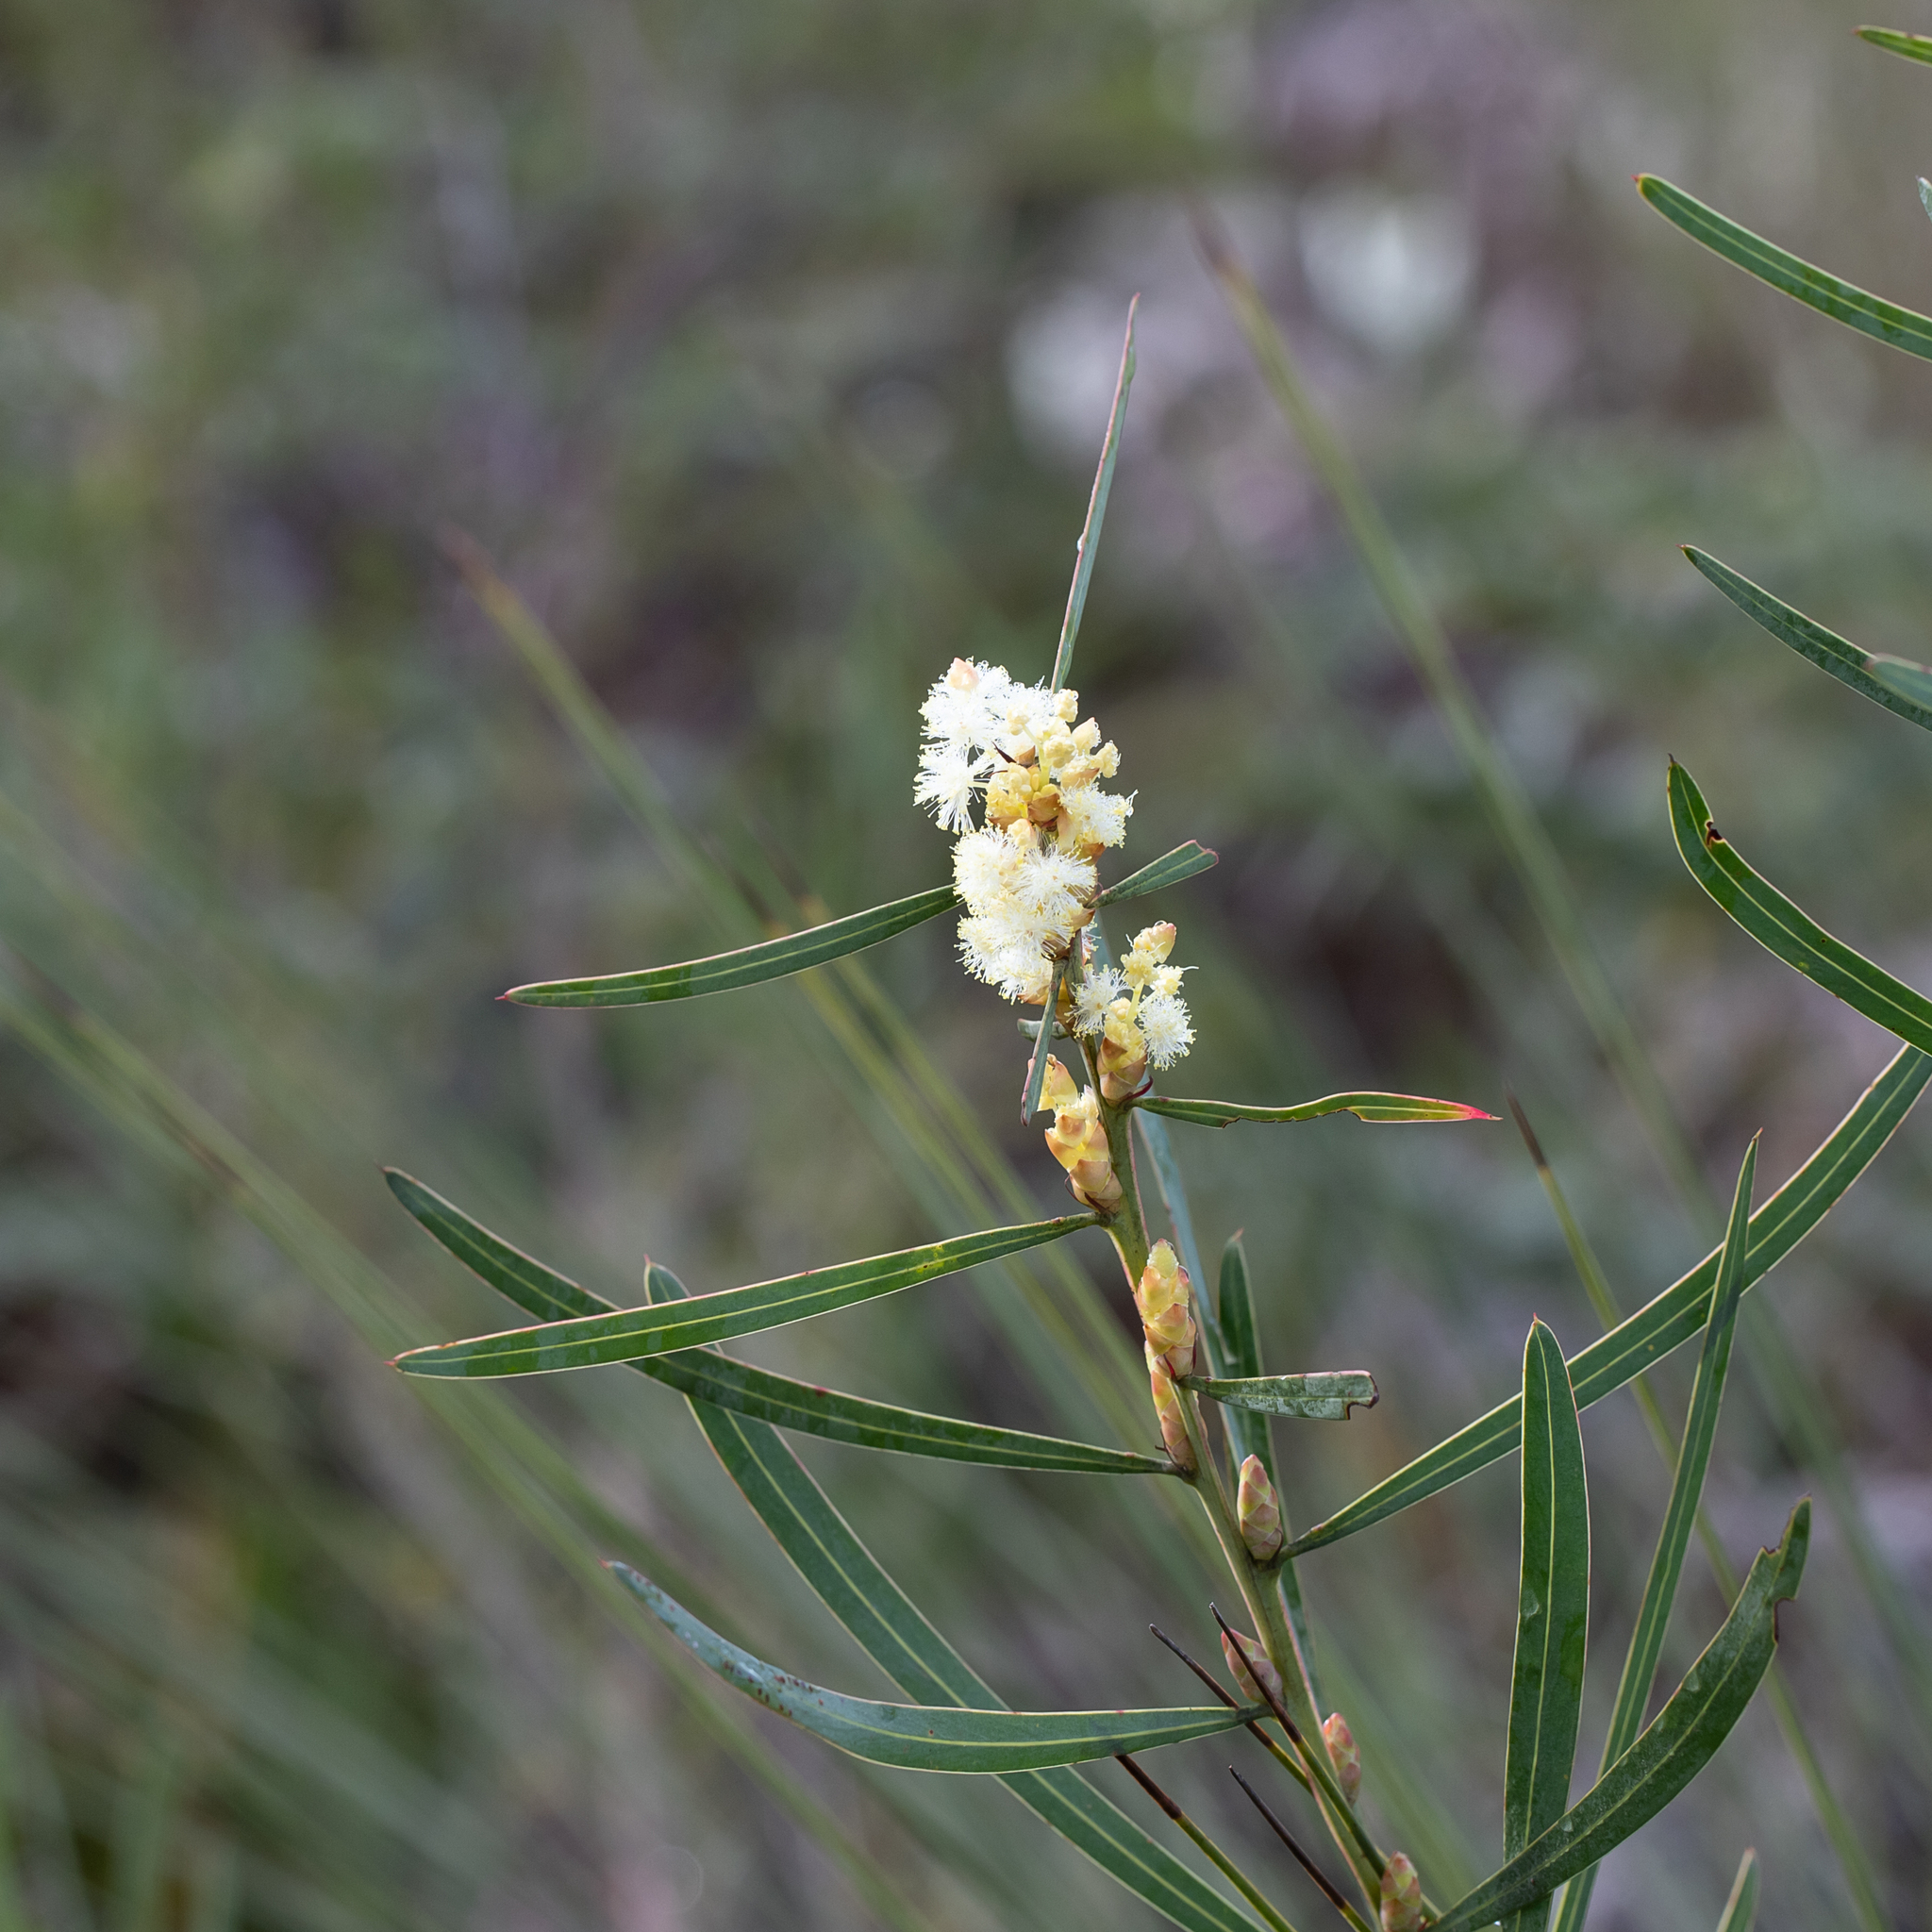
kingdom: Plantae
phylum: Tracheophyta
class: Magnoliopsida
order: Fabales
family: Fabaceae
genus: Acacia
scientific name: Acacia suaveolens
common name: Sweet acacia
